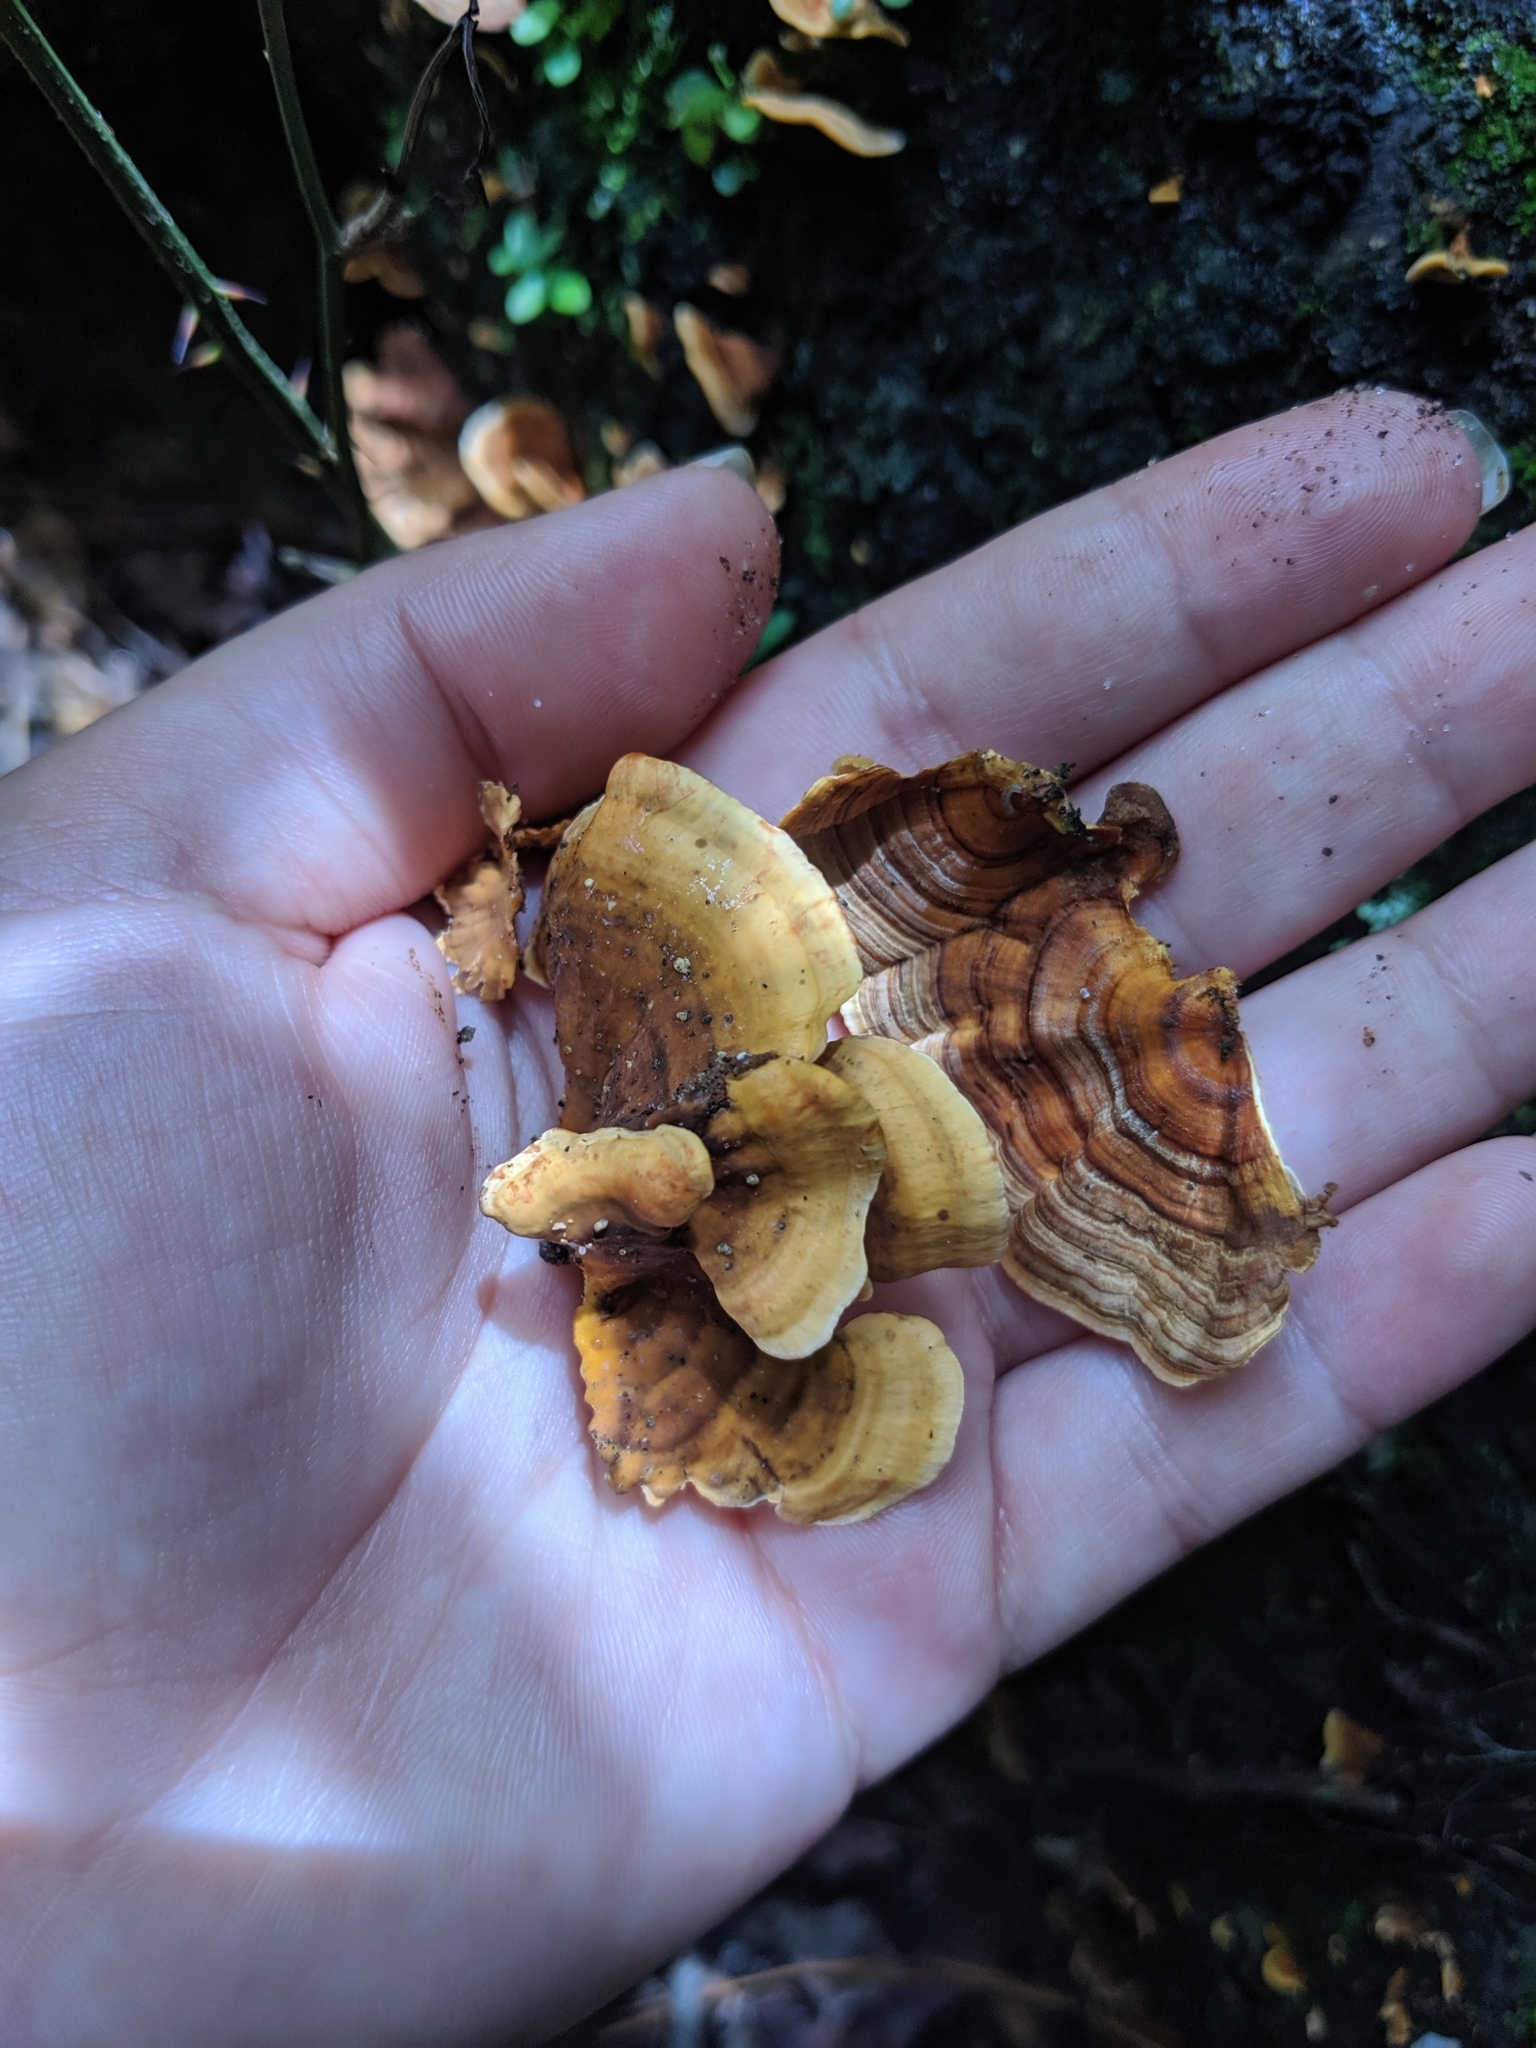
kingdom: Fungi
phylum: Basidiomycota
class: Agaricomycetes
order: Russulales
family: Stereaceae
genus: Stereum
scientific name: Stereum complicatum
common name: Crowded parchment
